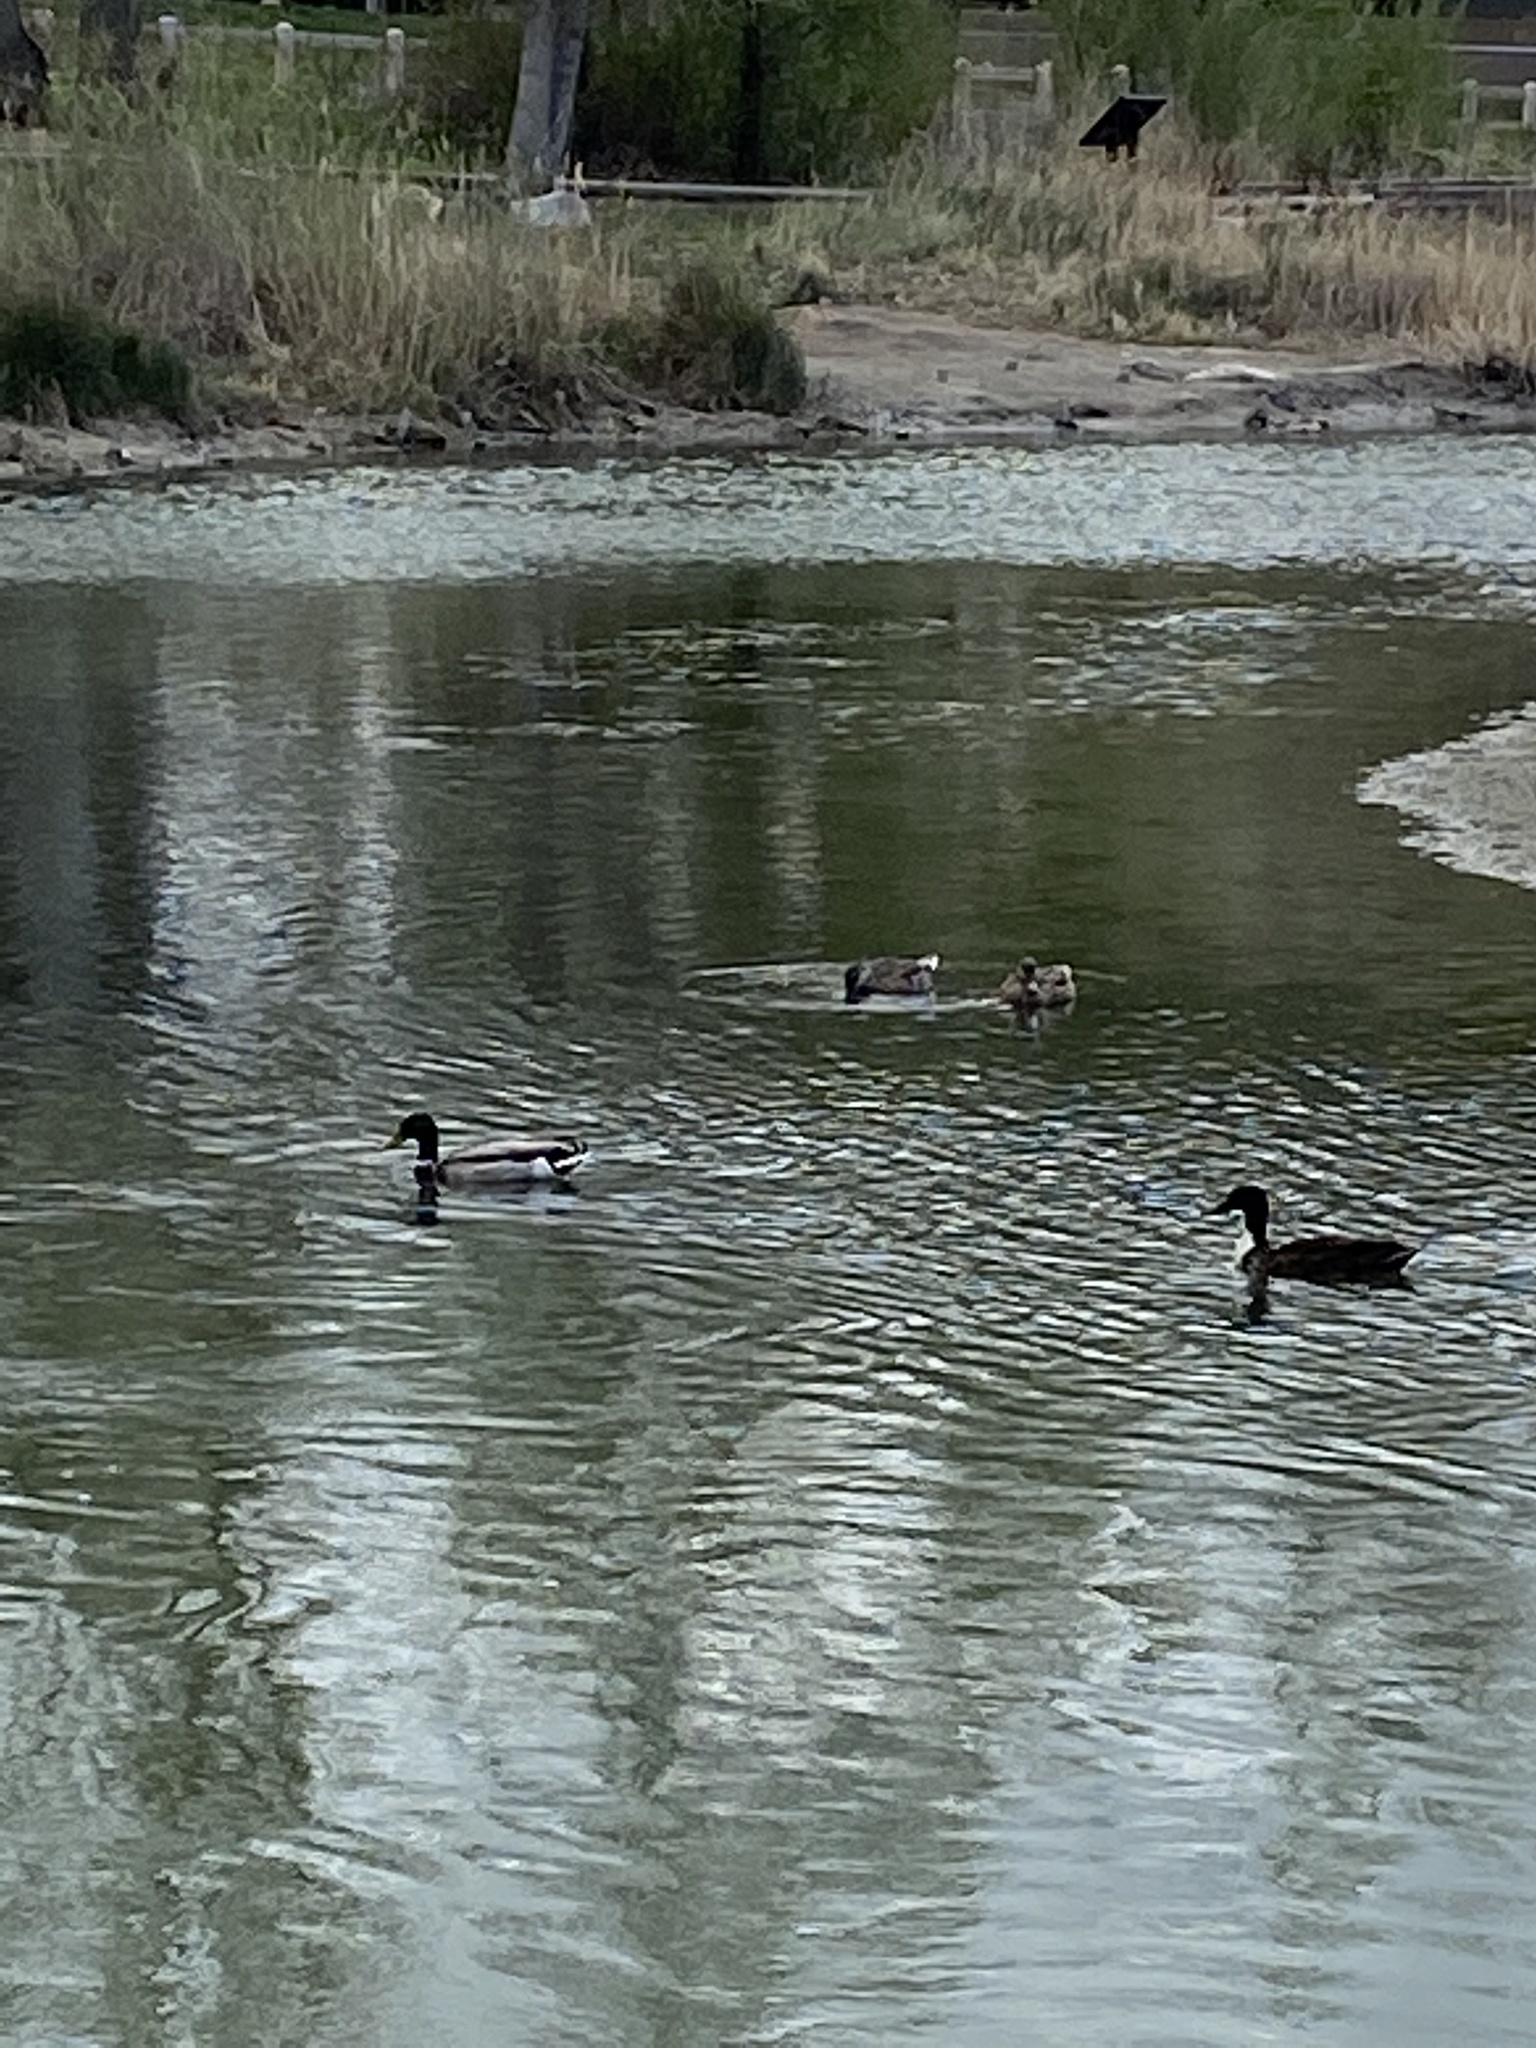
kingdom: Animalia
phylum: Chordata
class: Aves
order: Anseriformes
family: Anatidae
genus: Anas
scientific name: Anas platyrhynchos
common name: Mallard
